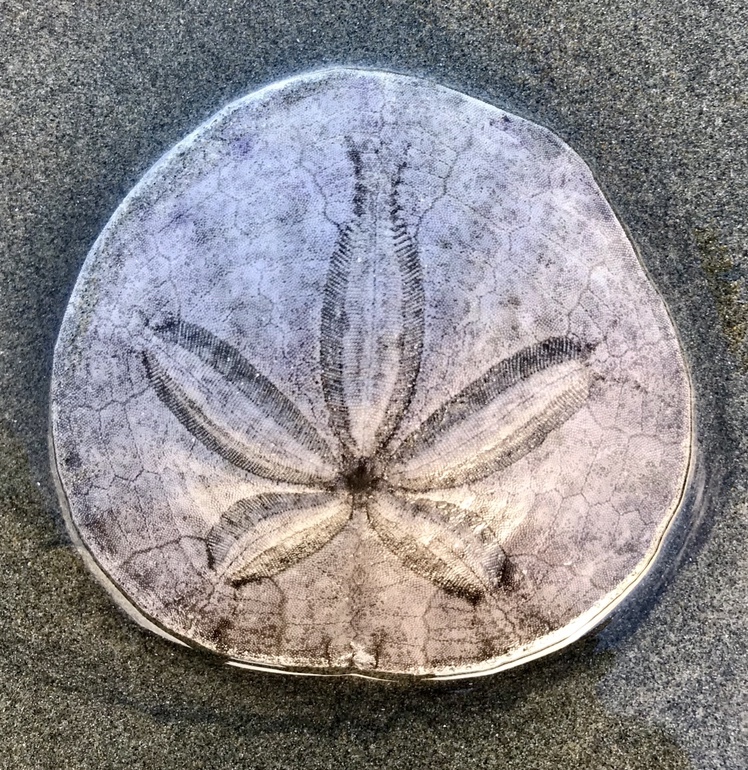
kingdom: Animalia
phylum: Echinodermata
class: Echinoidea
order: Echinolampadacea
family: Dendrasteridae
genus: Dendraster
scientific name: Dendraster excentricus
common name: Eccentric sand dollar sea urchin
